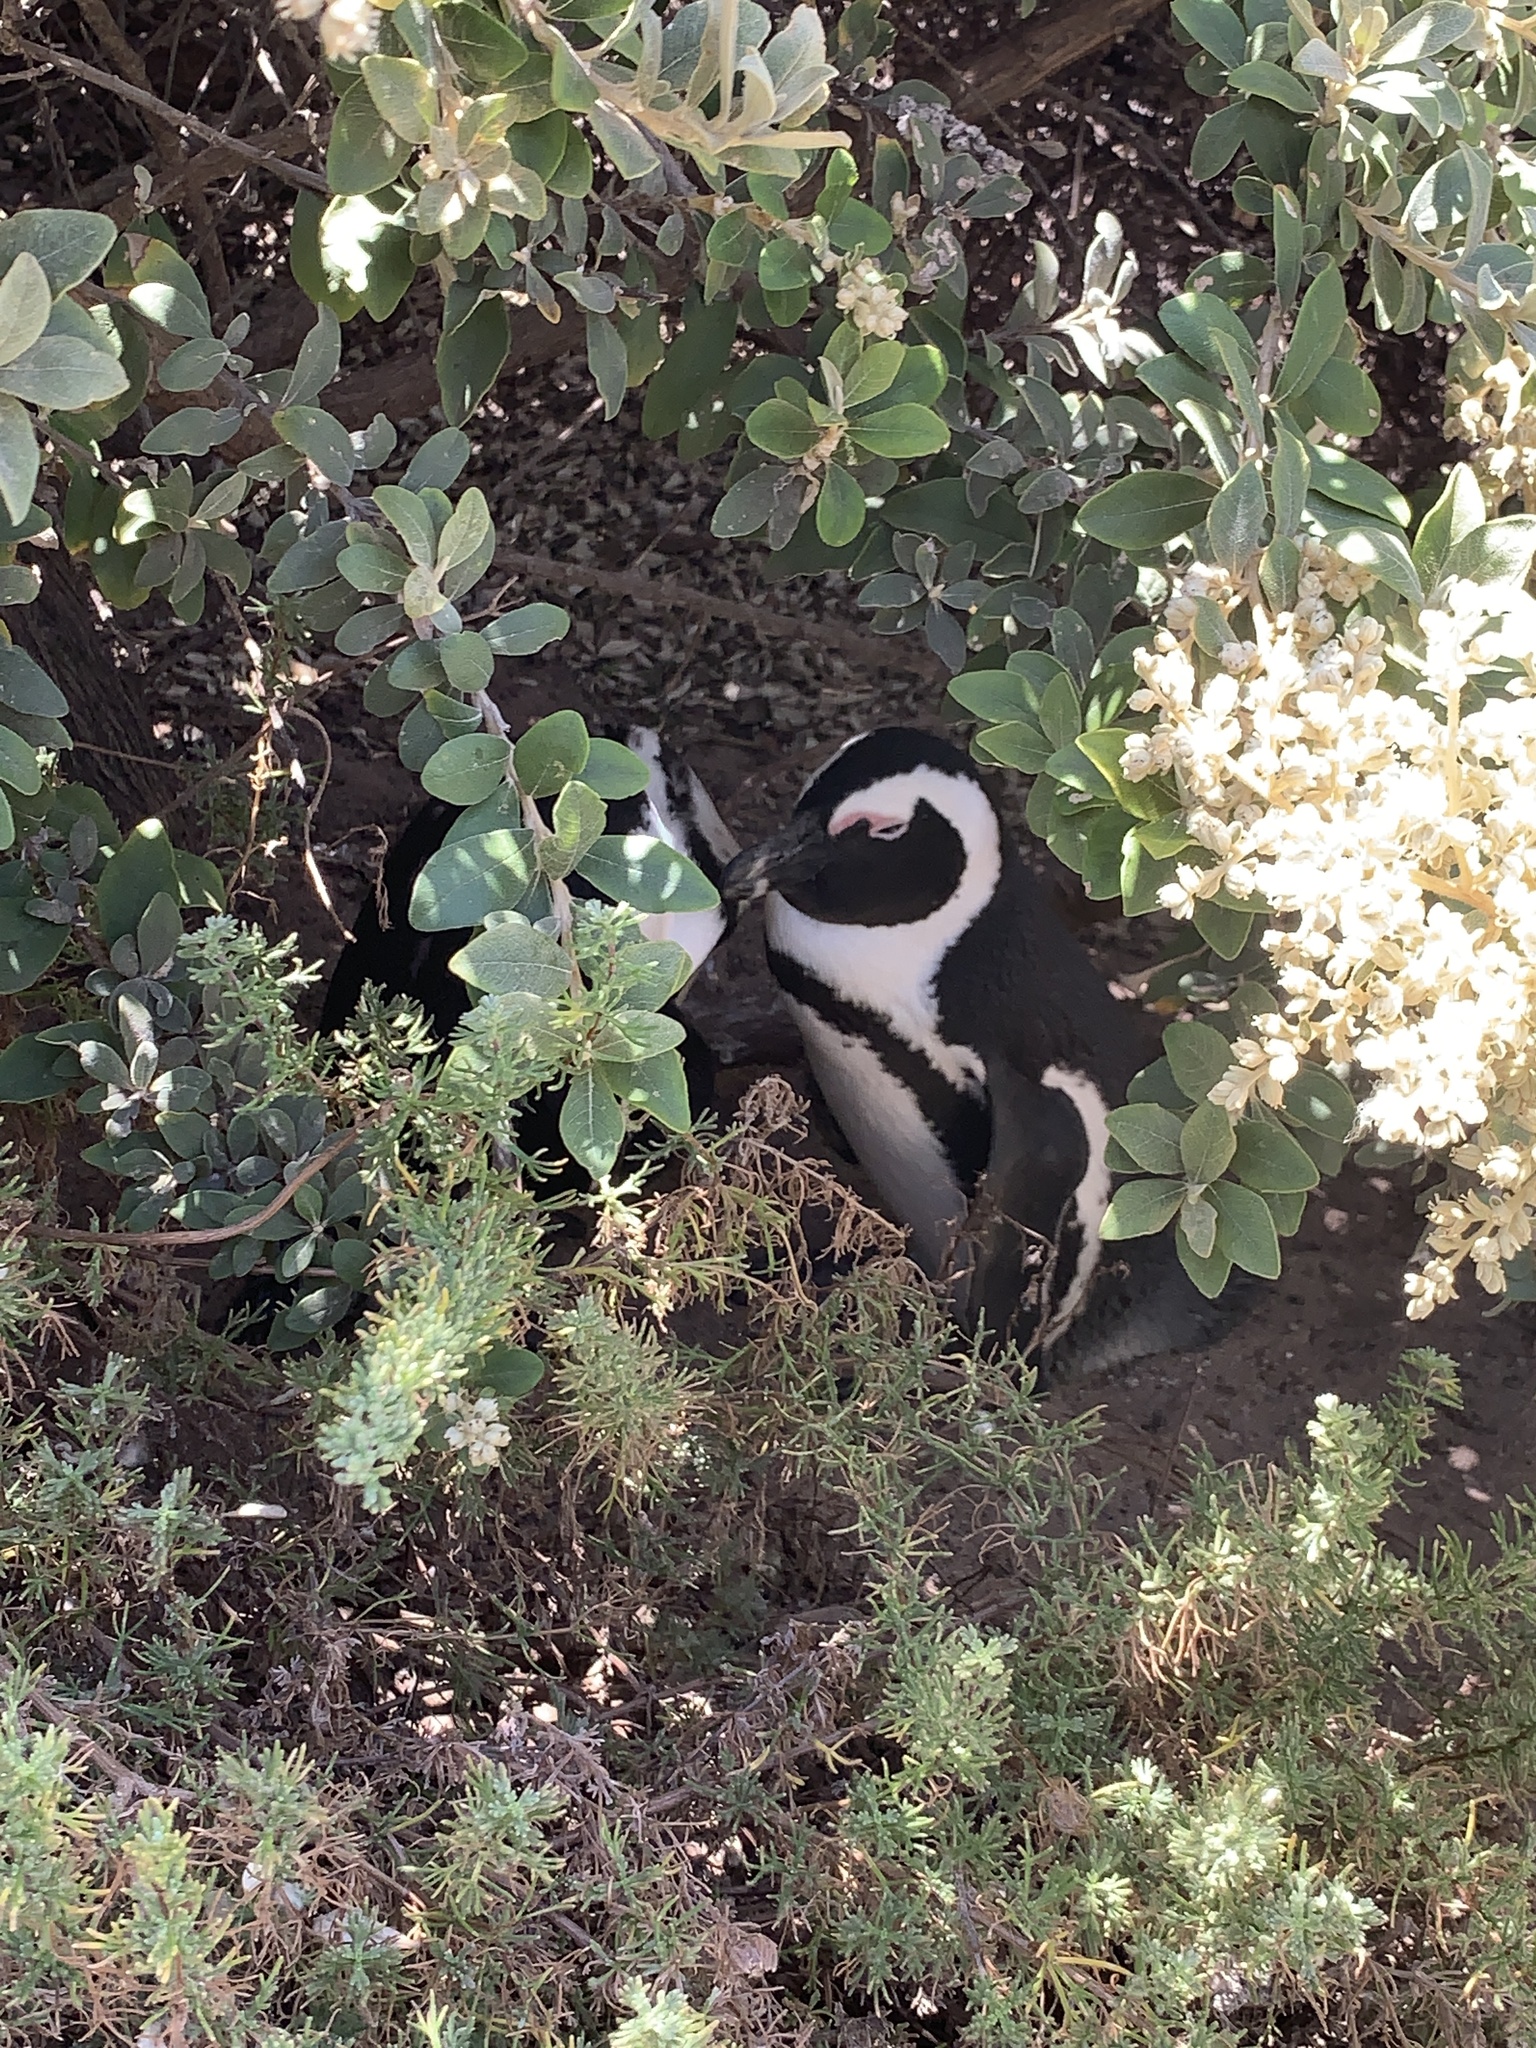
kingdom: Animalia
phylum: Chordata
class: Aves
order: Sphenisciformes
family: Spheniscidae
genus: Spheniscus
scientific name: Spheniscus demersus
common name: African penguin
